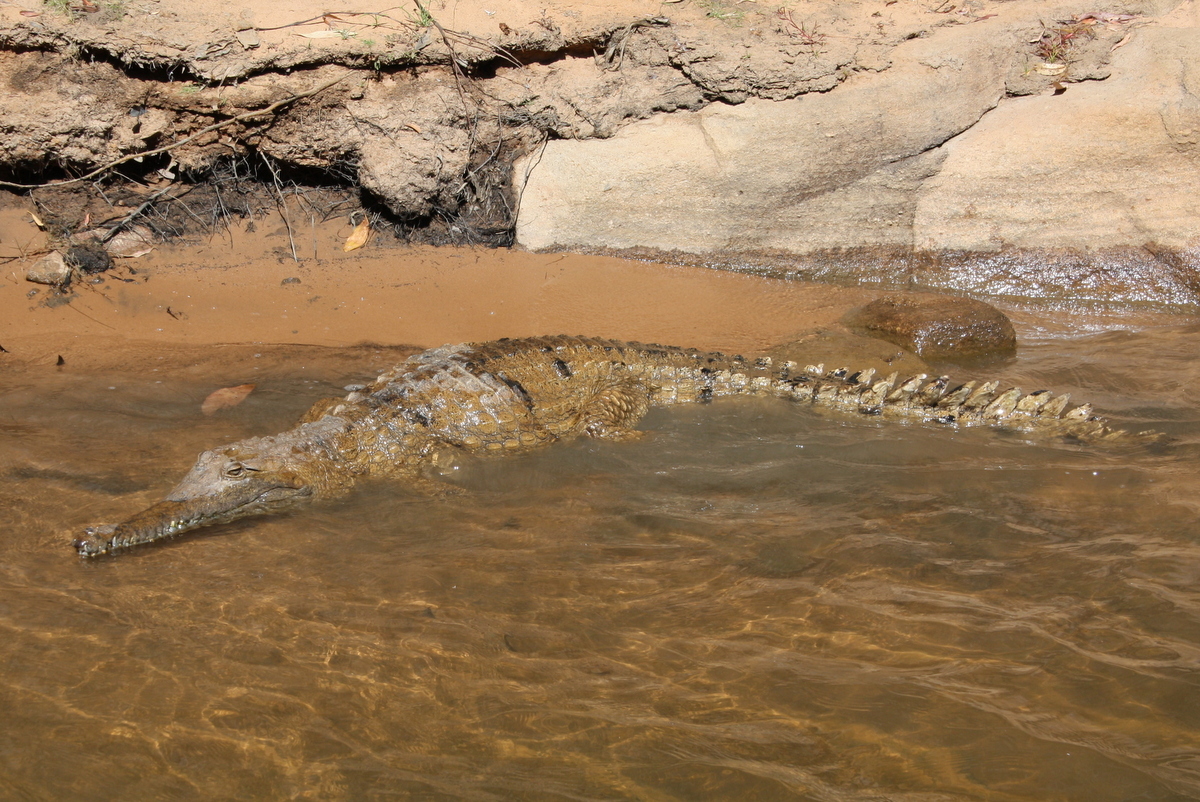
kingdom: Animalia
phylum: Chordata
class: Crocodylia
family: Crocodylidae
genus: Crocodylus
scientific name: Crocodylus johnsoni
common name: Freshwater crocodile
